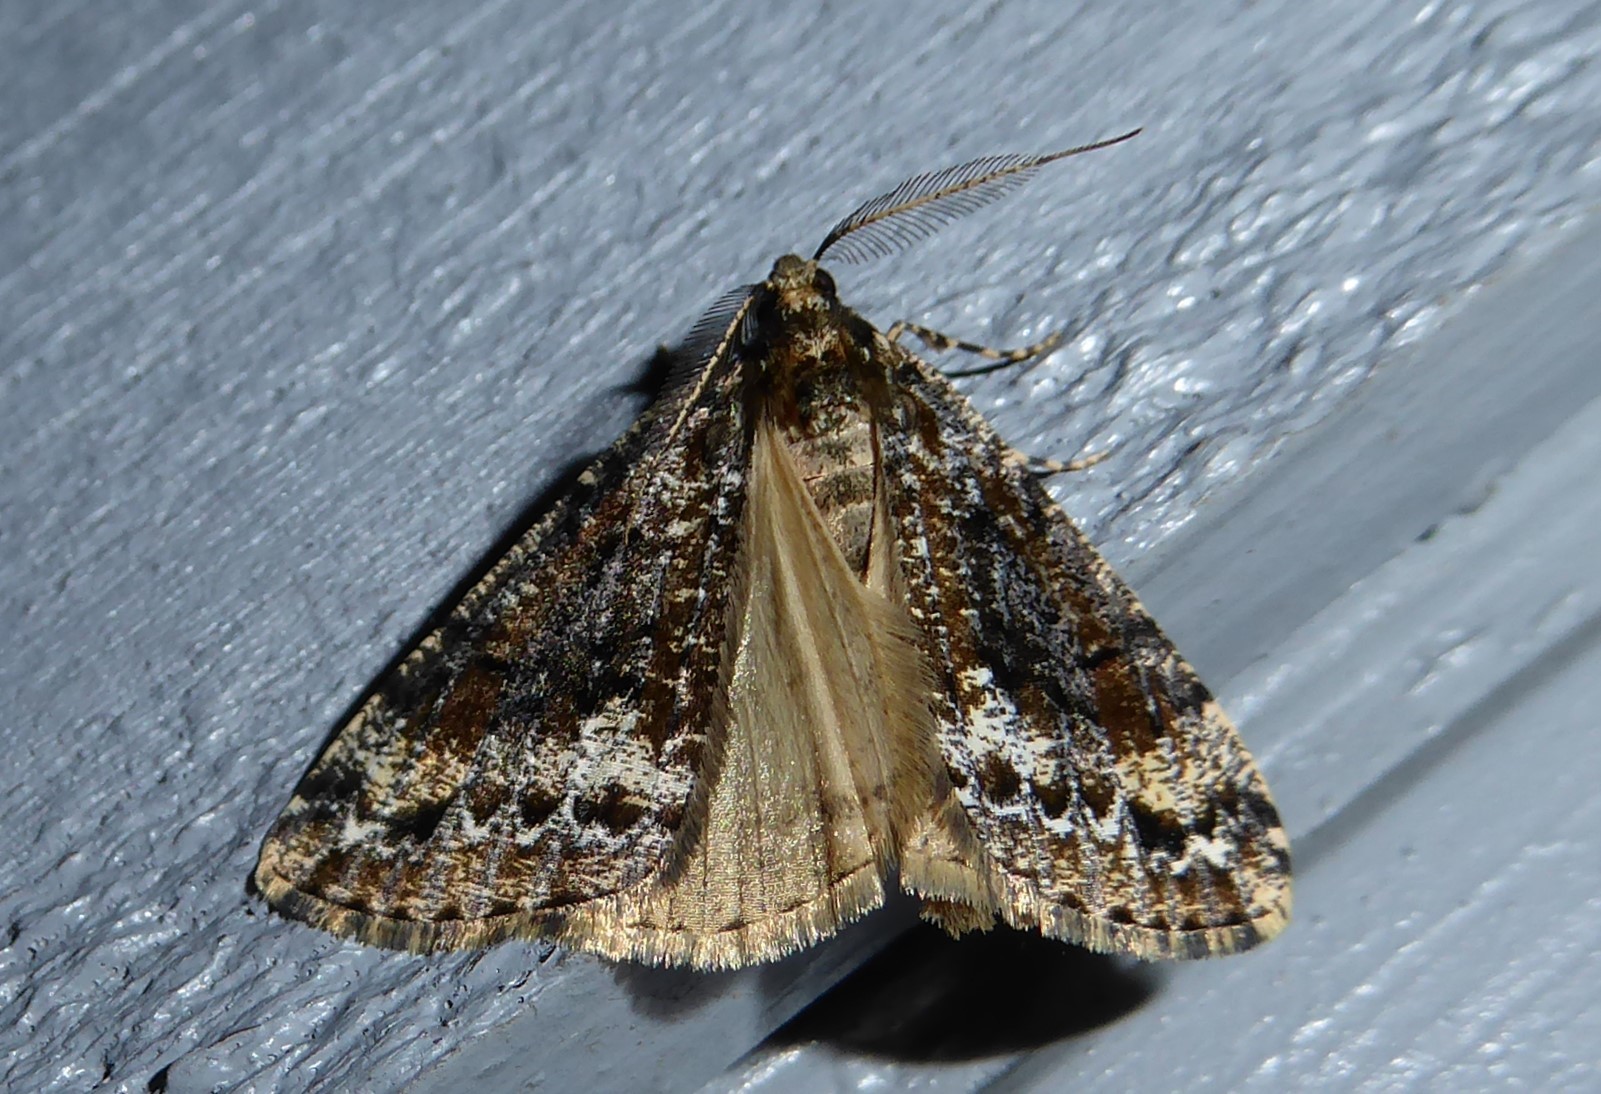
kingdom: Animalia
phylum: Arthropoda
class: Insecta
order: Lepidoptera
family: Geometridae
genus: Pseudocoremia
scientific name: Pseudocoremia leucelaea
